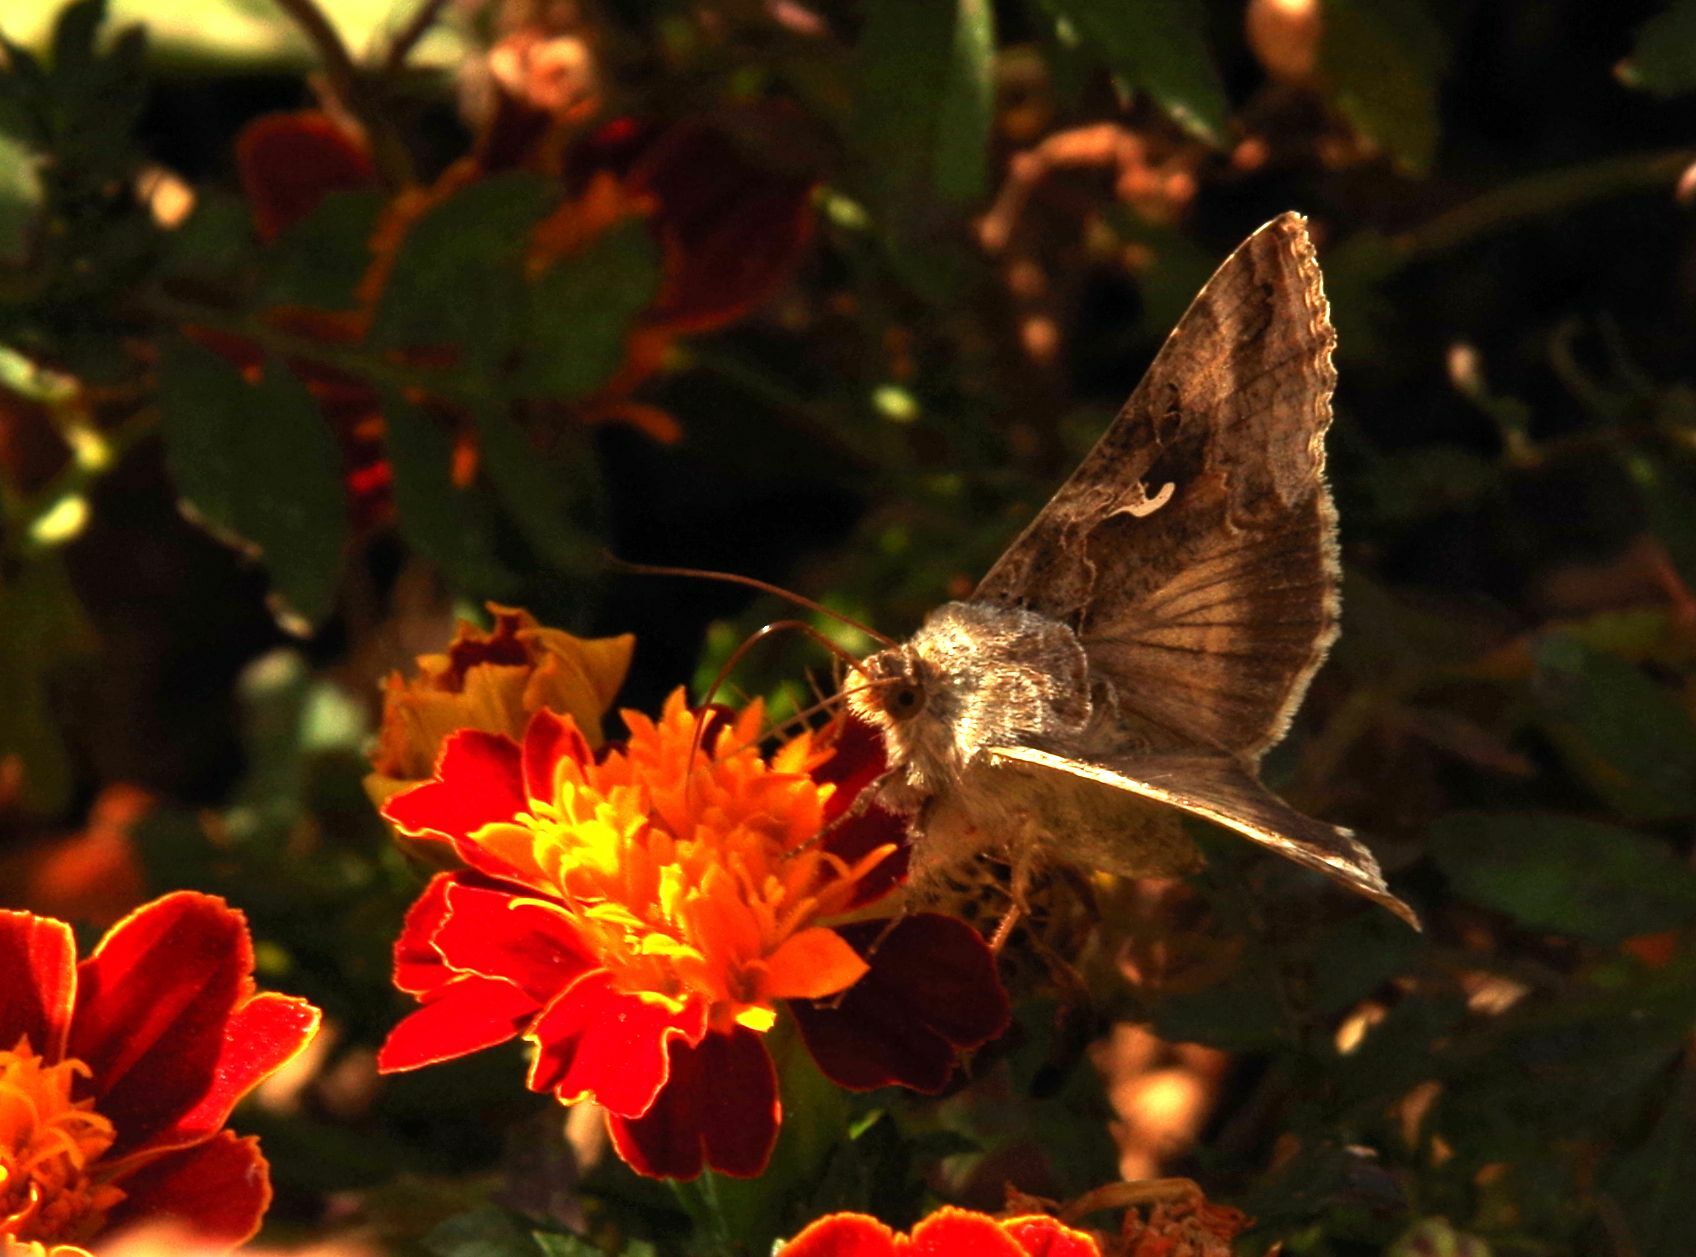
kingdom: Animalia
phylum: Arthropoda
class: Insecta
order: Lepidoptera
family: Noctuidae
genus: Autographa
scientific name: Autographa gamma
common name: Silver y
